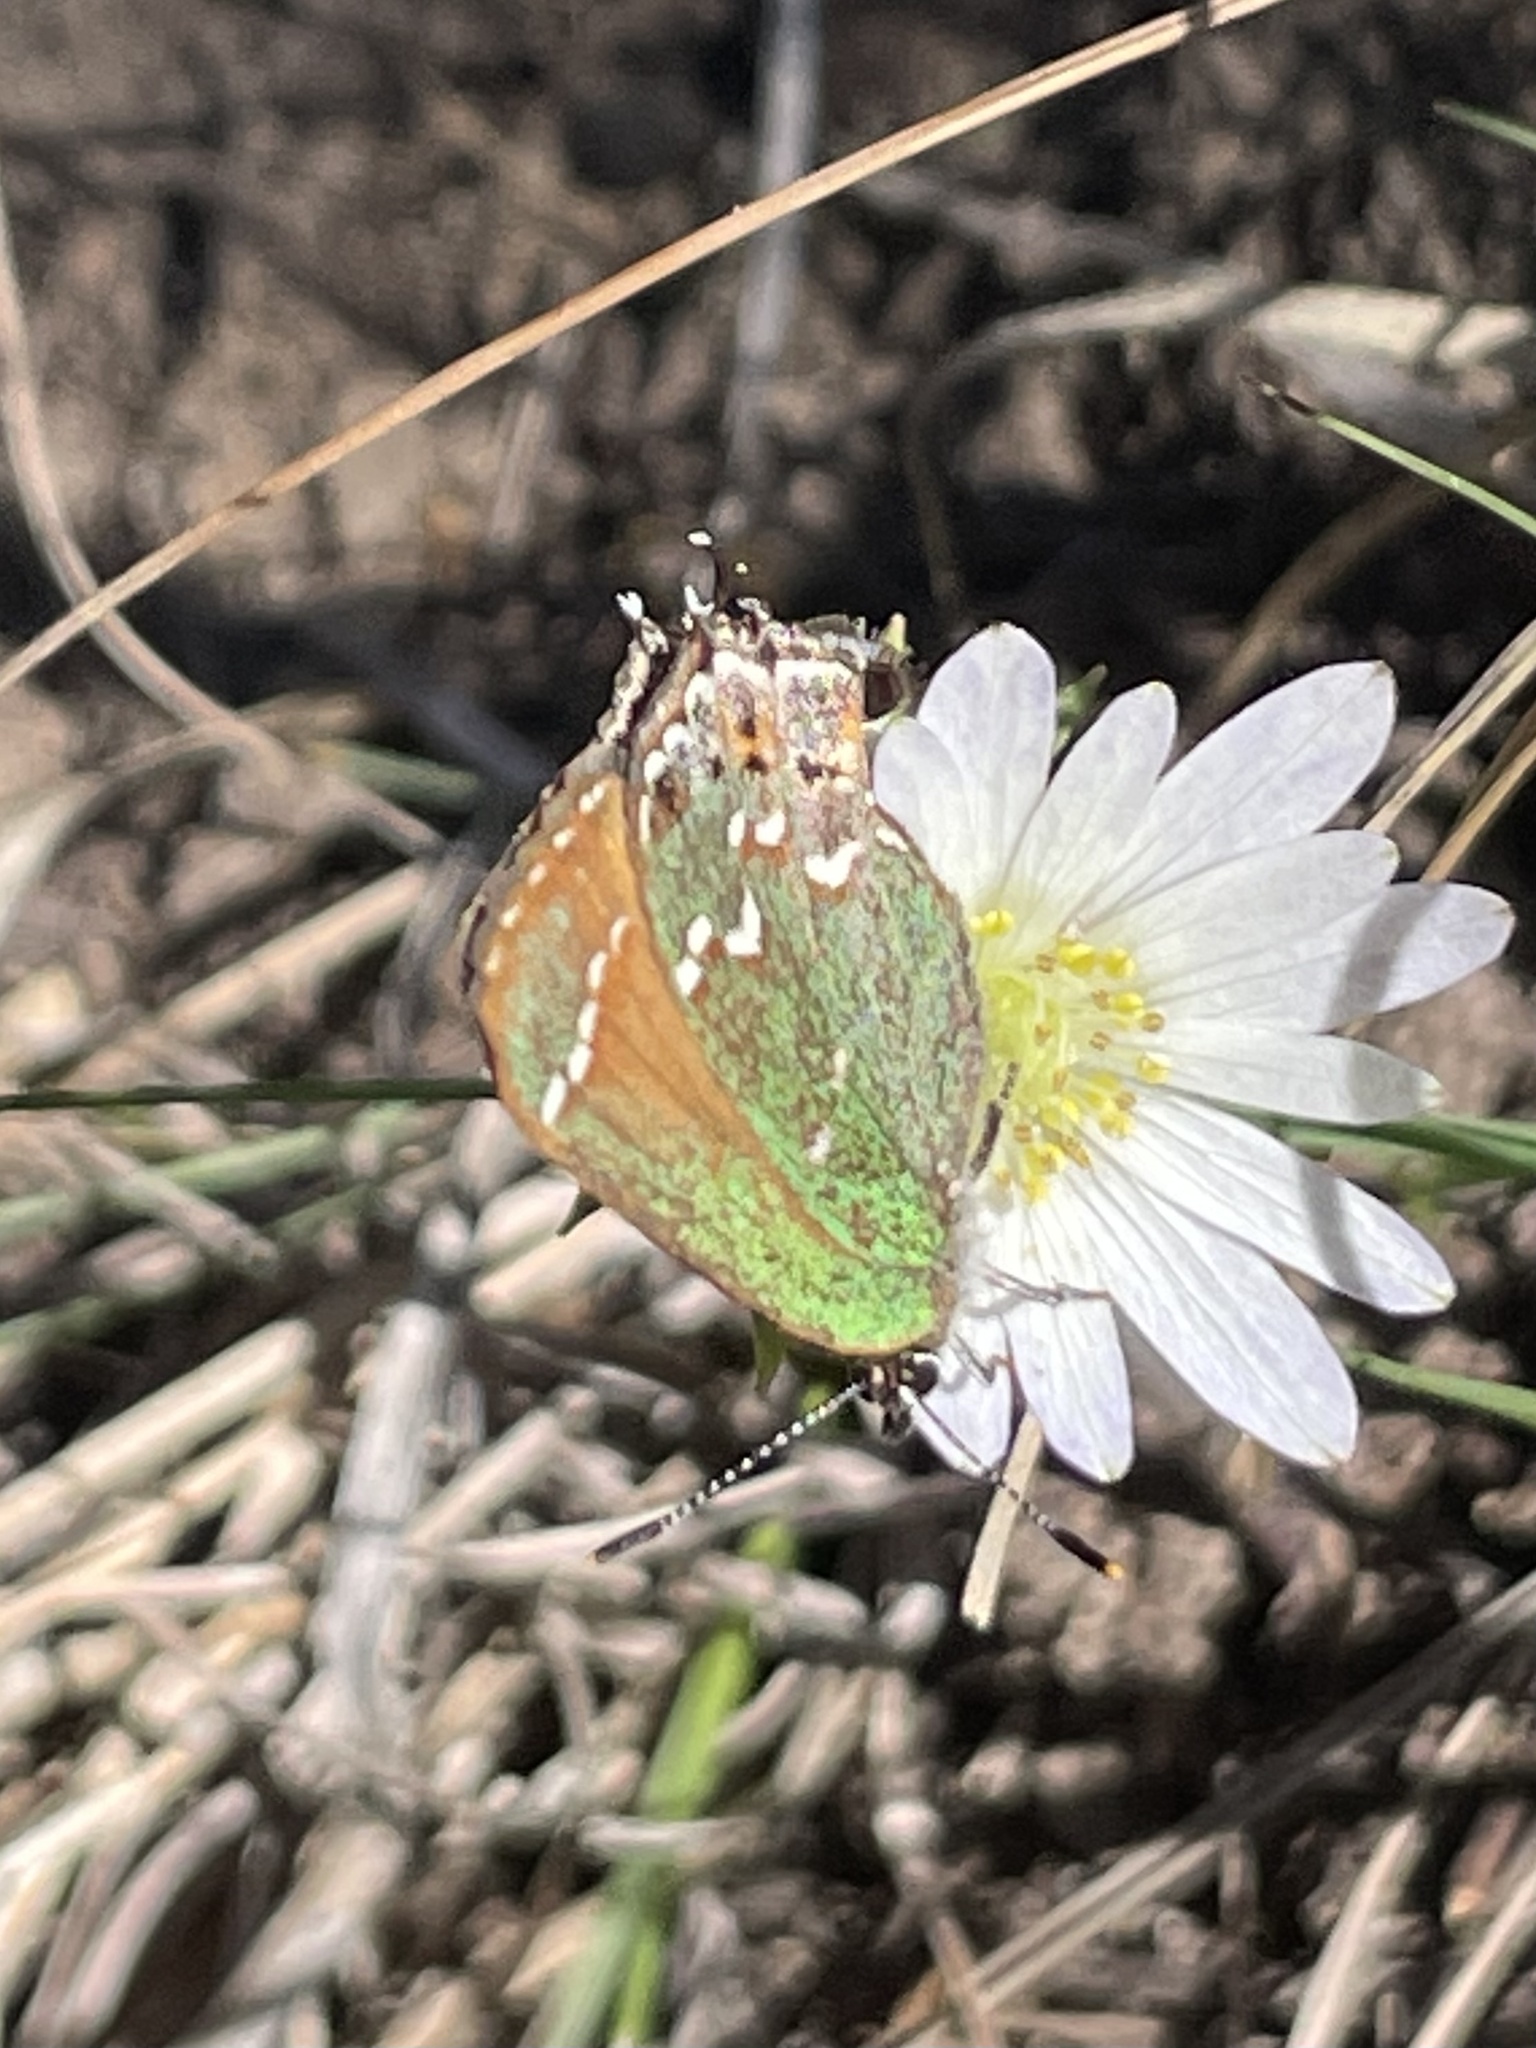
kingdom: Animalia
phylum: Arthropoda
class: Insecta
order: Lepidoptera
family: Lycaenidae
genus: Mitoura
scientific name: Mitoura gryneus
